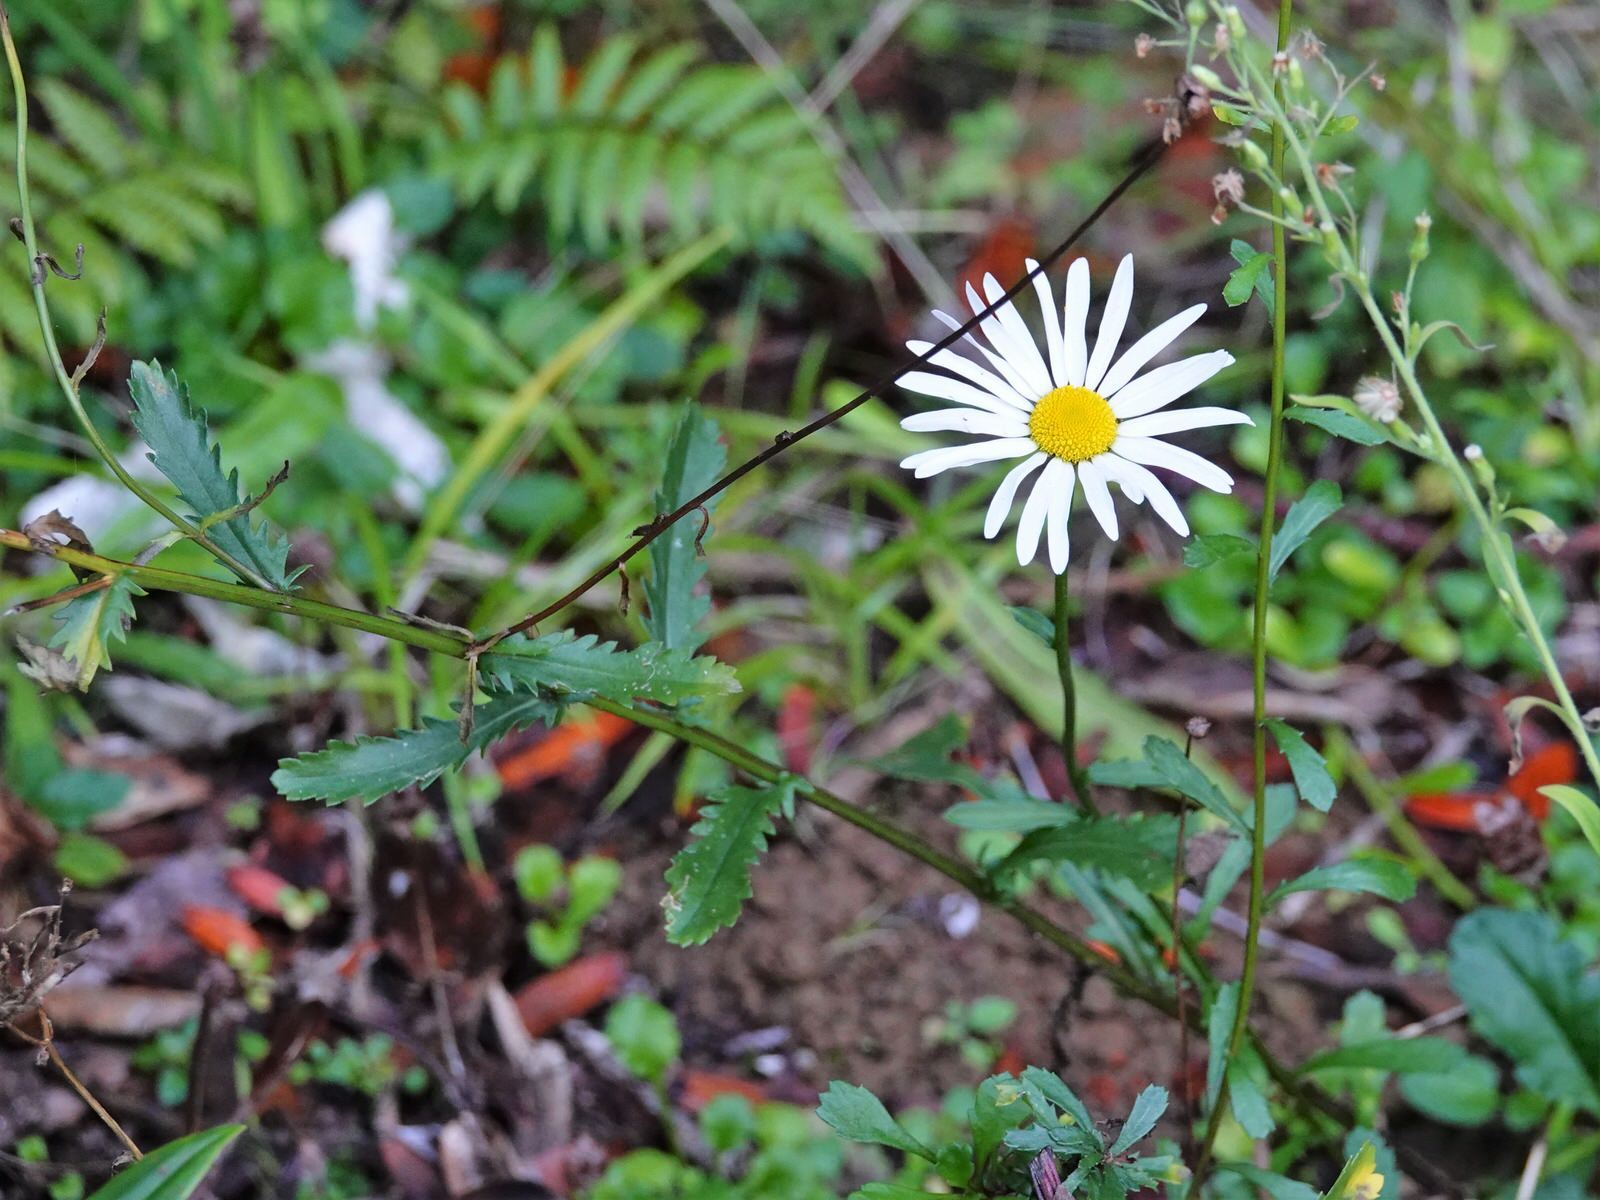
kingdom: Plantae
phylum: Tracheophyta
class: Magnoliopsida
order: Asterales
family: Asteraceae
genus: Leucanthemum
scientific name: Leucanthemum vulgare
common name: Oxeye daisy
